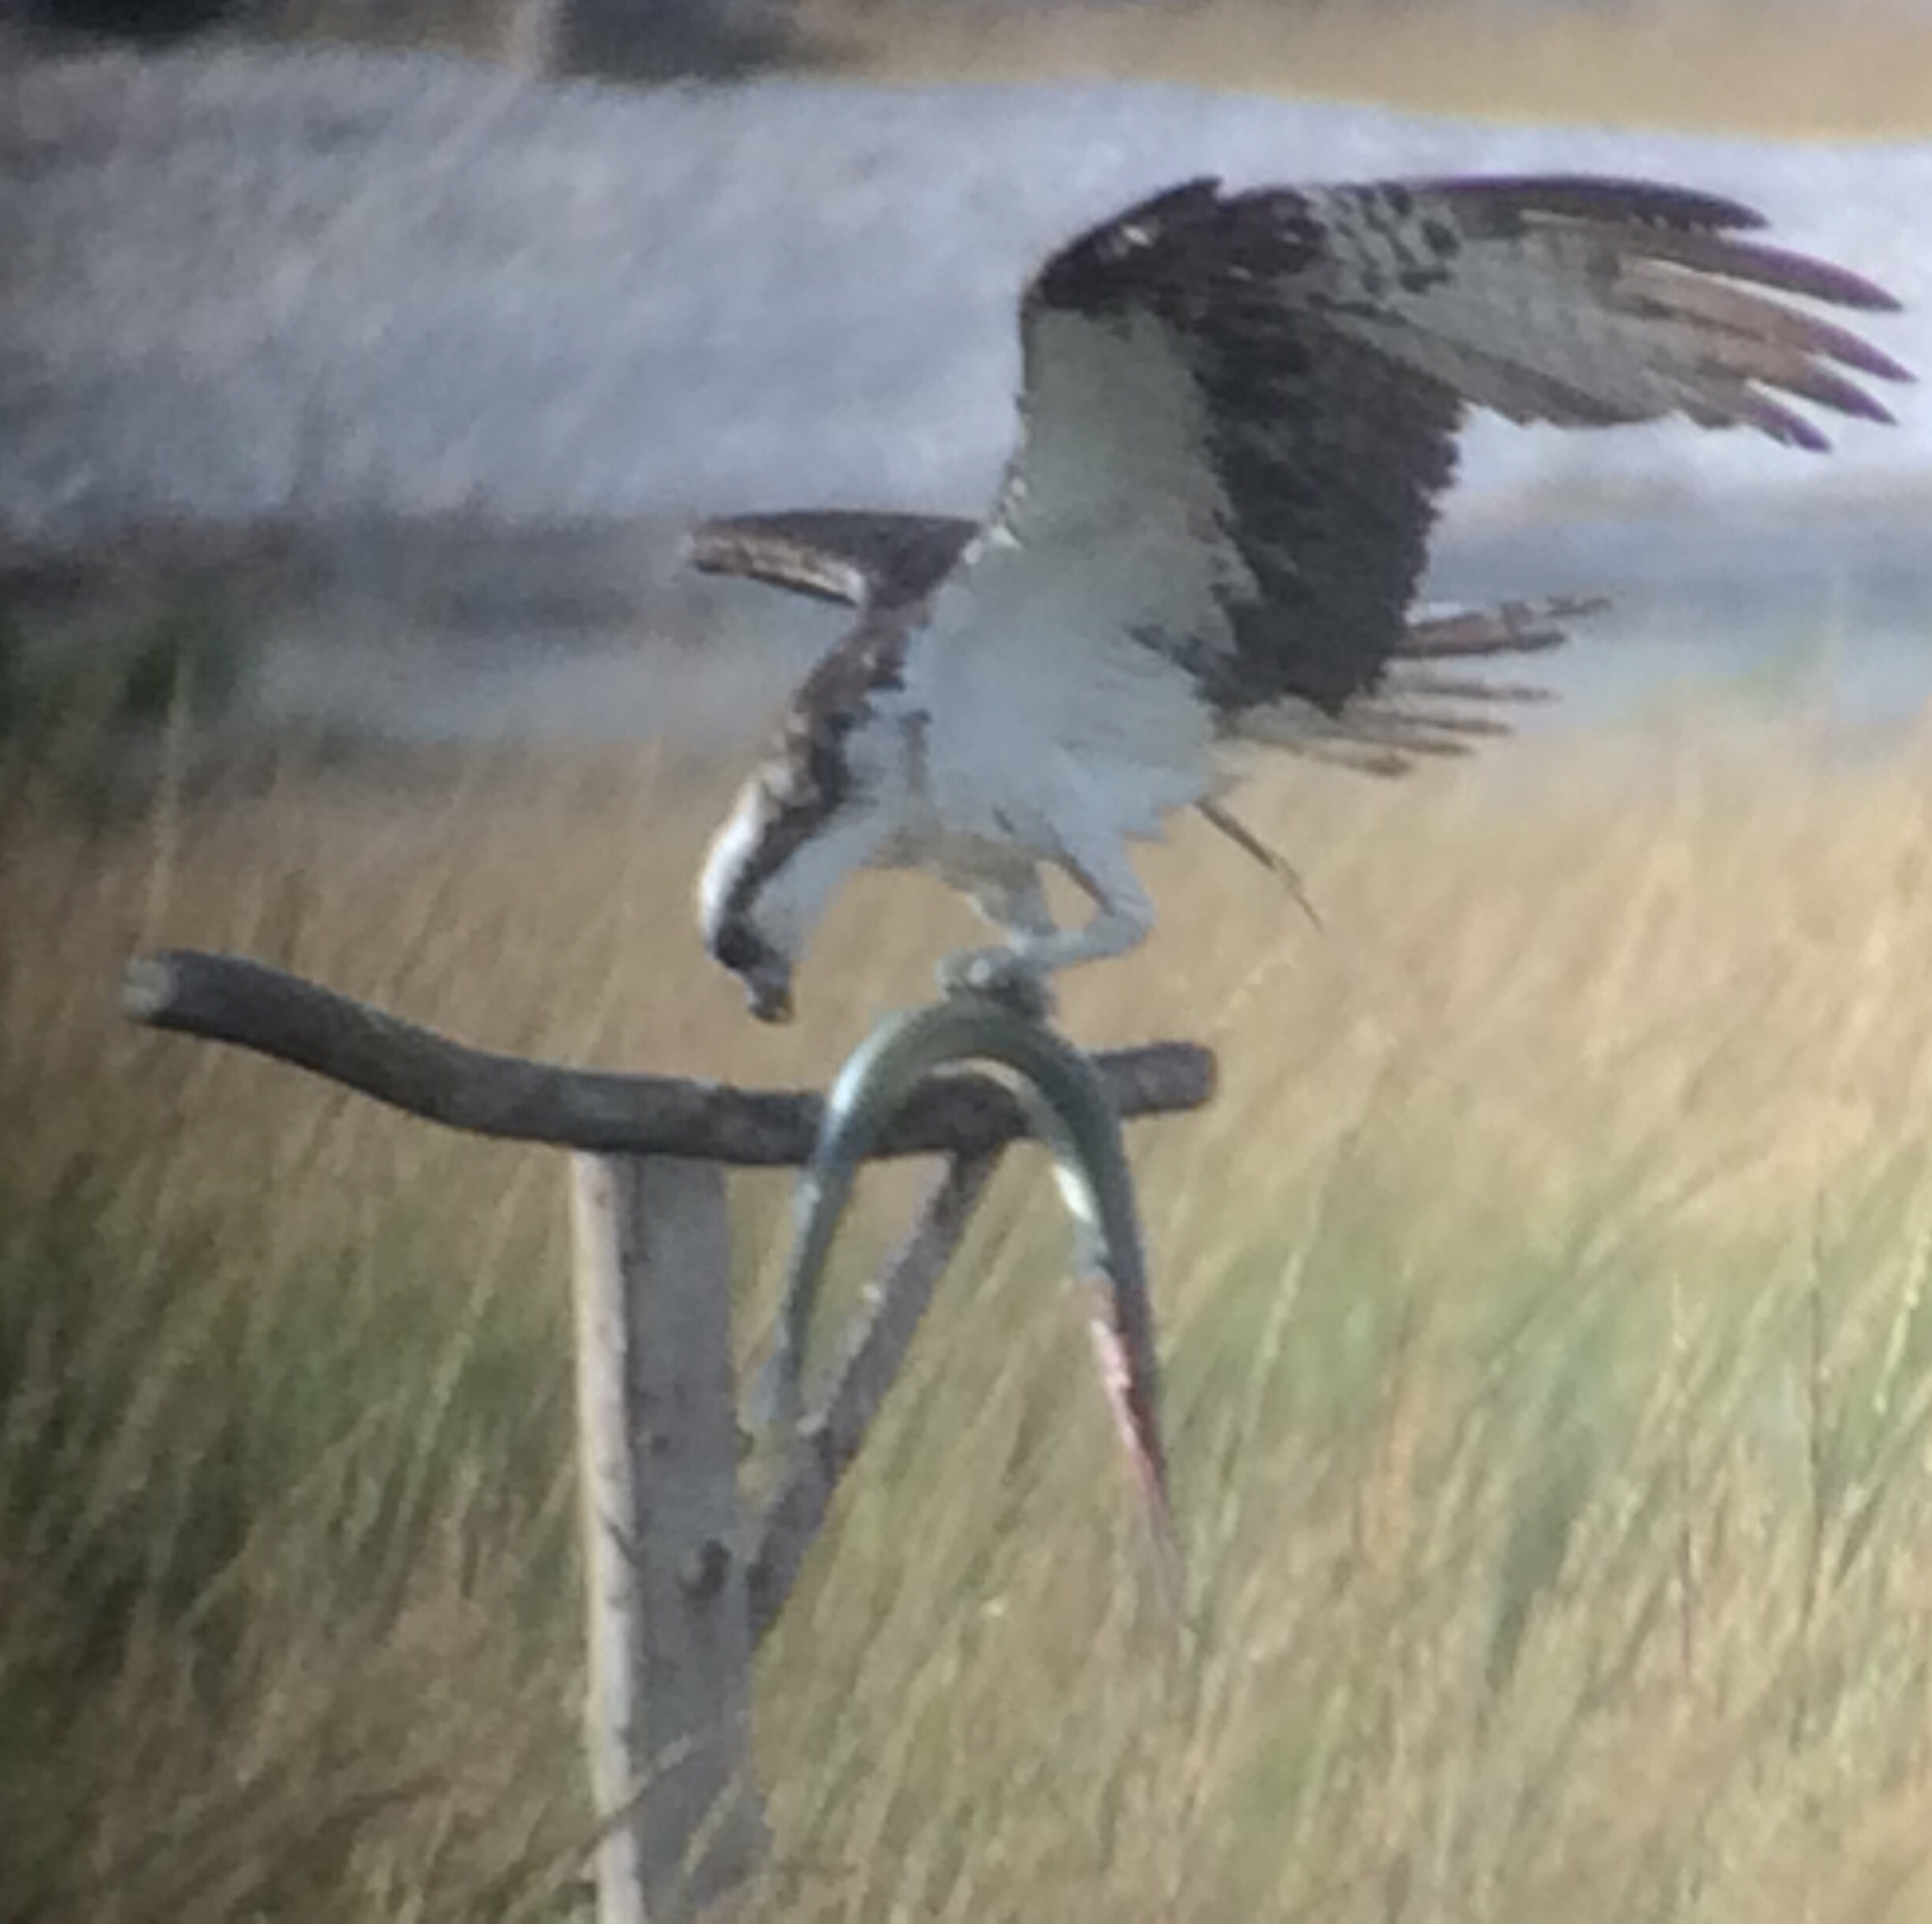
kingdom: Animalia
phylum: Chordata
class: Aves
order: Accipitriformes
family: Pandionidae
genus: Pandion
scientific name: Pandion haliaetus
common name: Osprey
